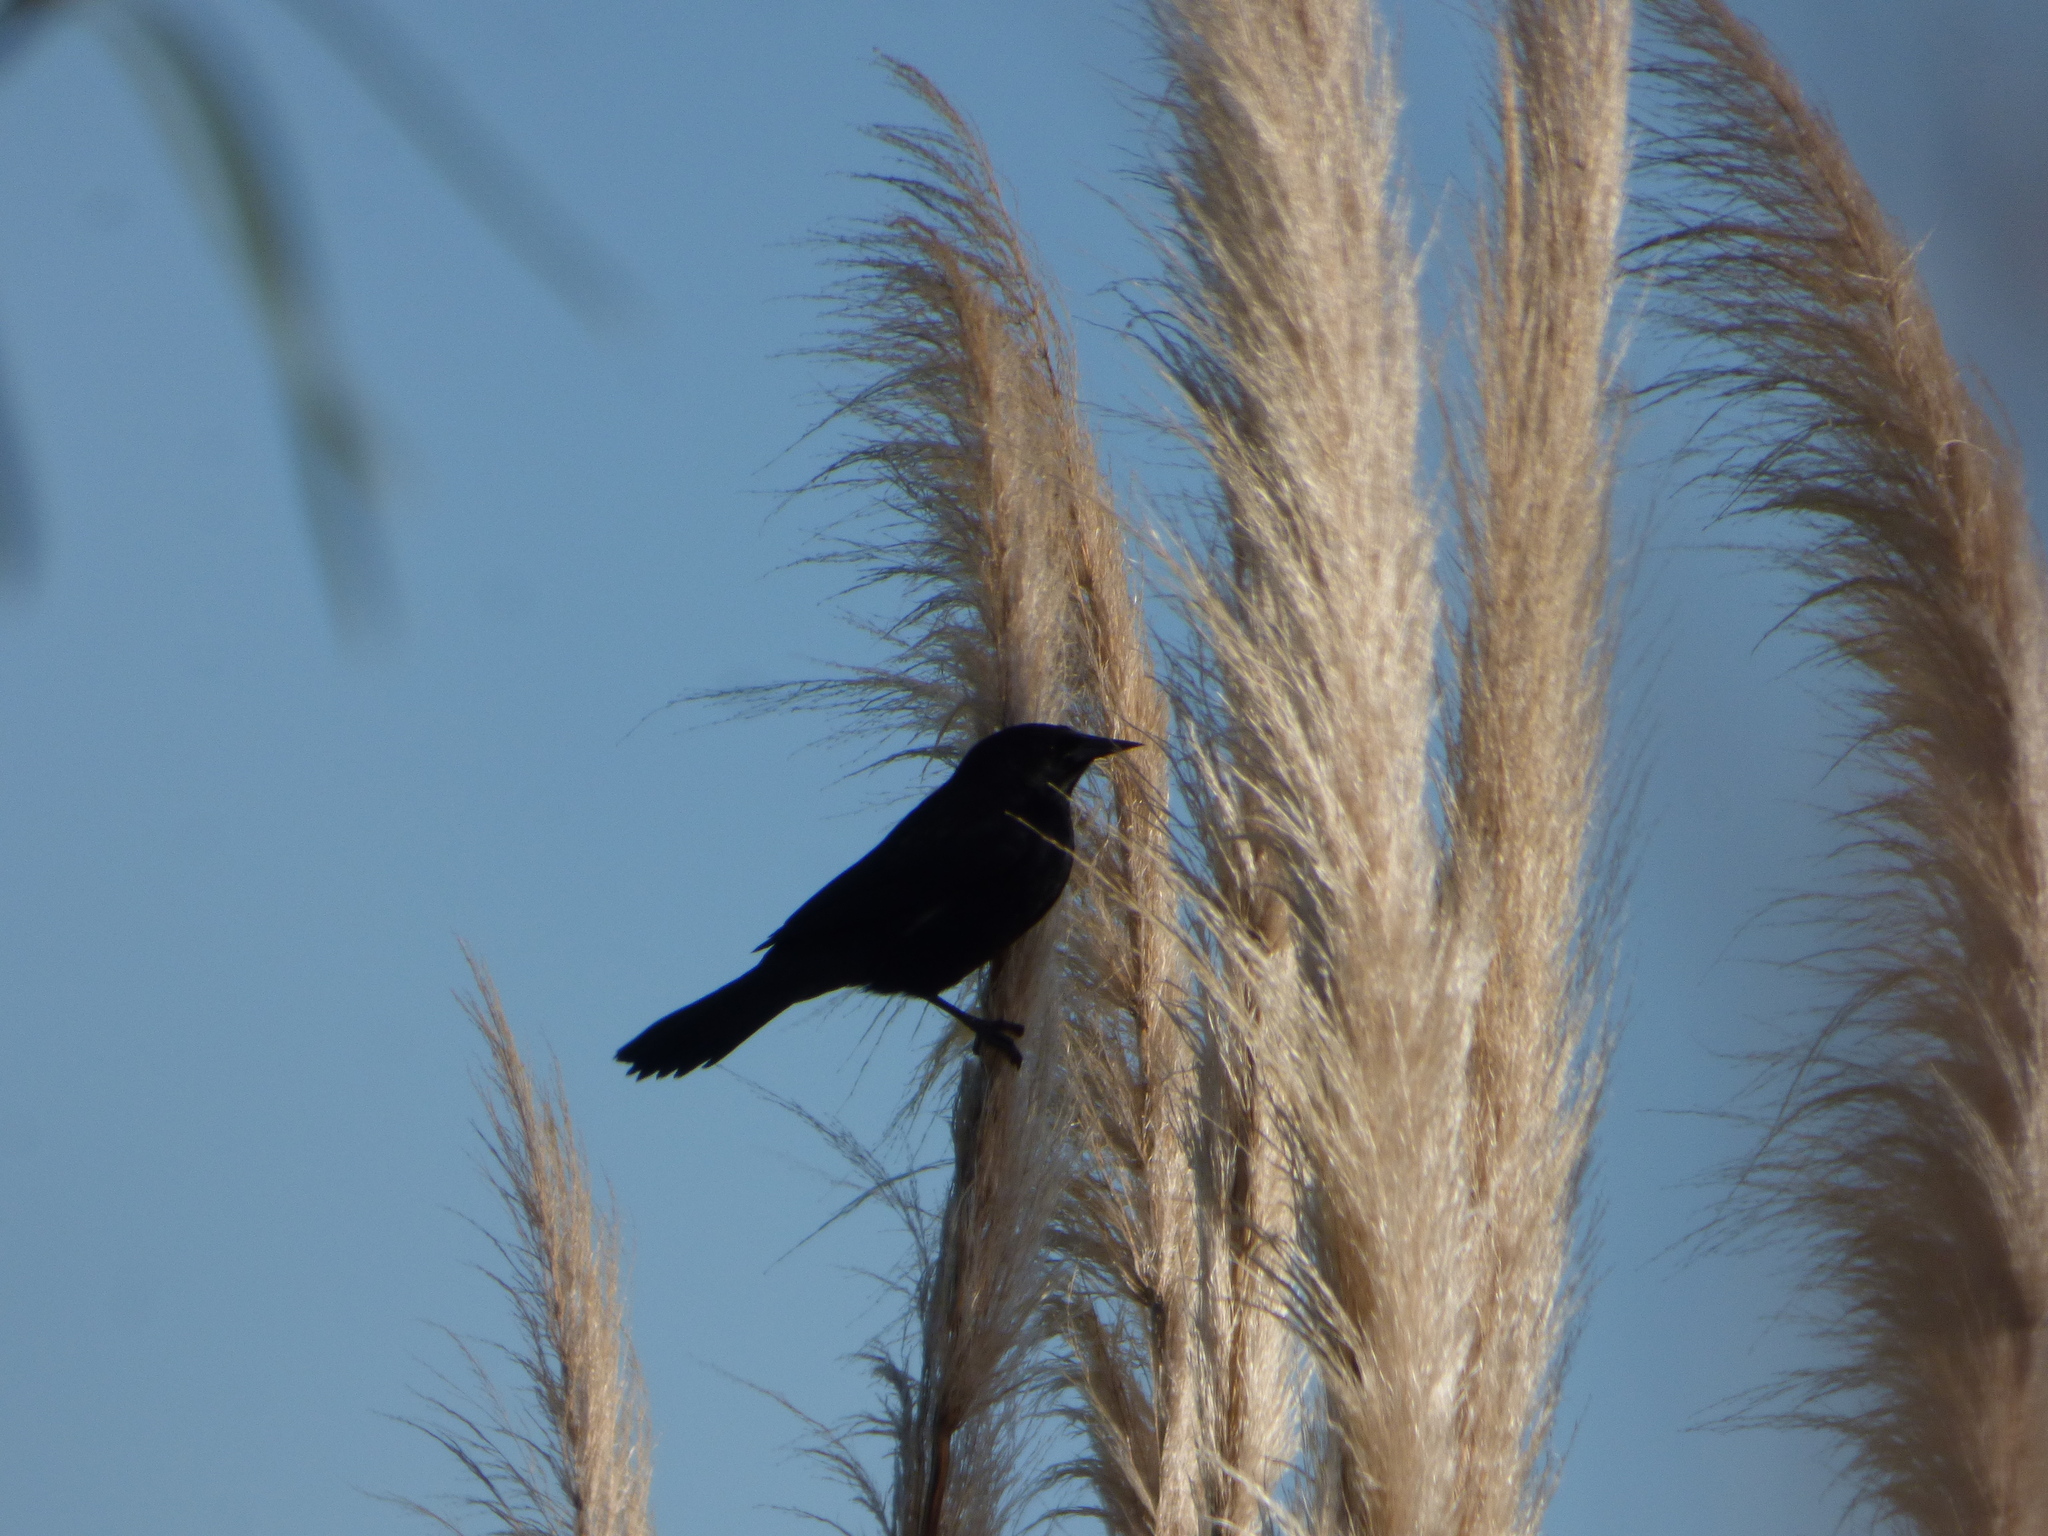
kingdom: Animalia
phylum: Chordata
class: Aves
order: Passeriformes
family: Icteridae
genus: Agelasticus
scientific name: Agelasticus cyanopus
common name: Unicolored blackbird
